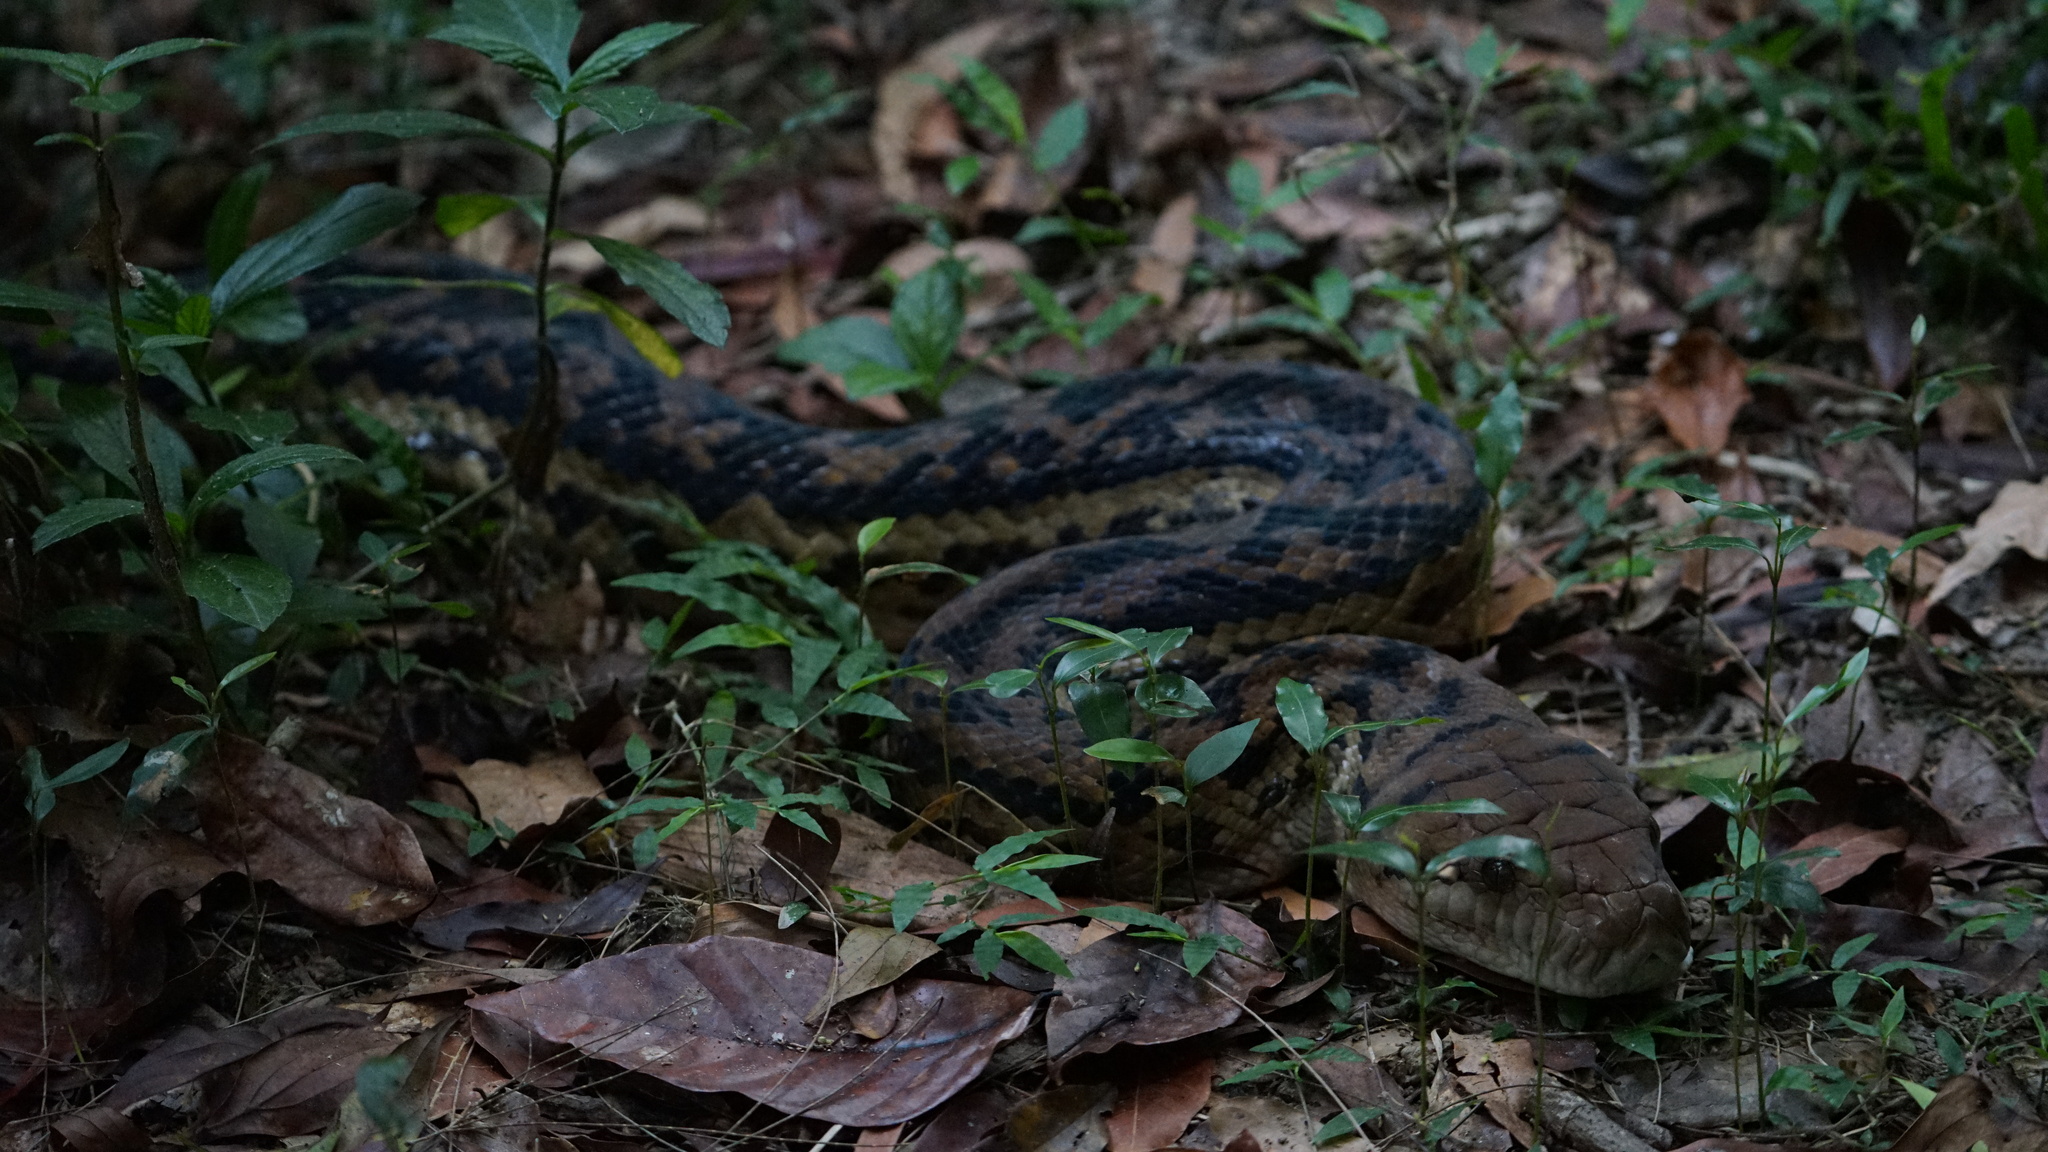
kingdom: Animalia
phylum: Chordata
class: Squamata
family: Pythonidae
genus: Simalia
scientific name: Simalia kinghorni
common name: Scrub python
